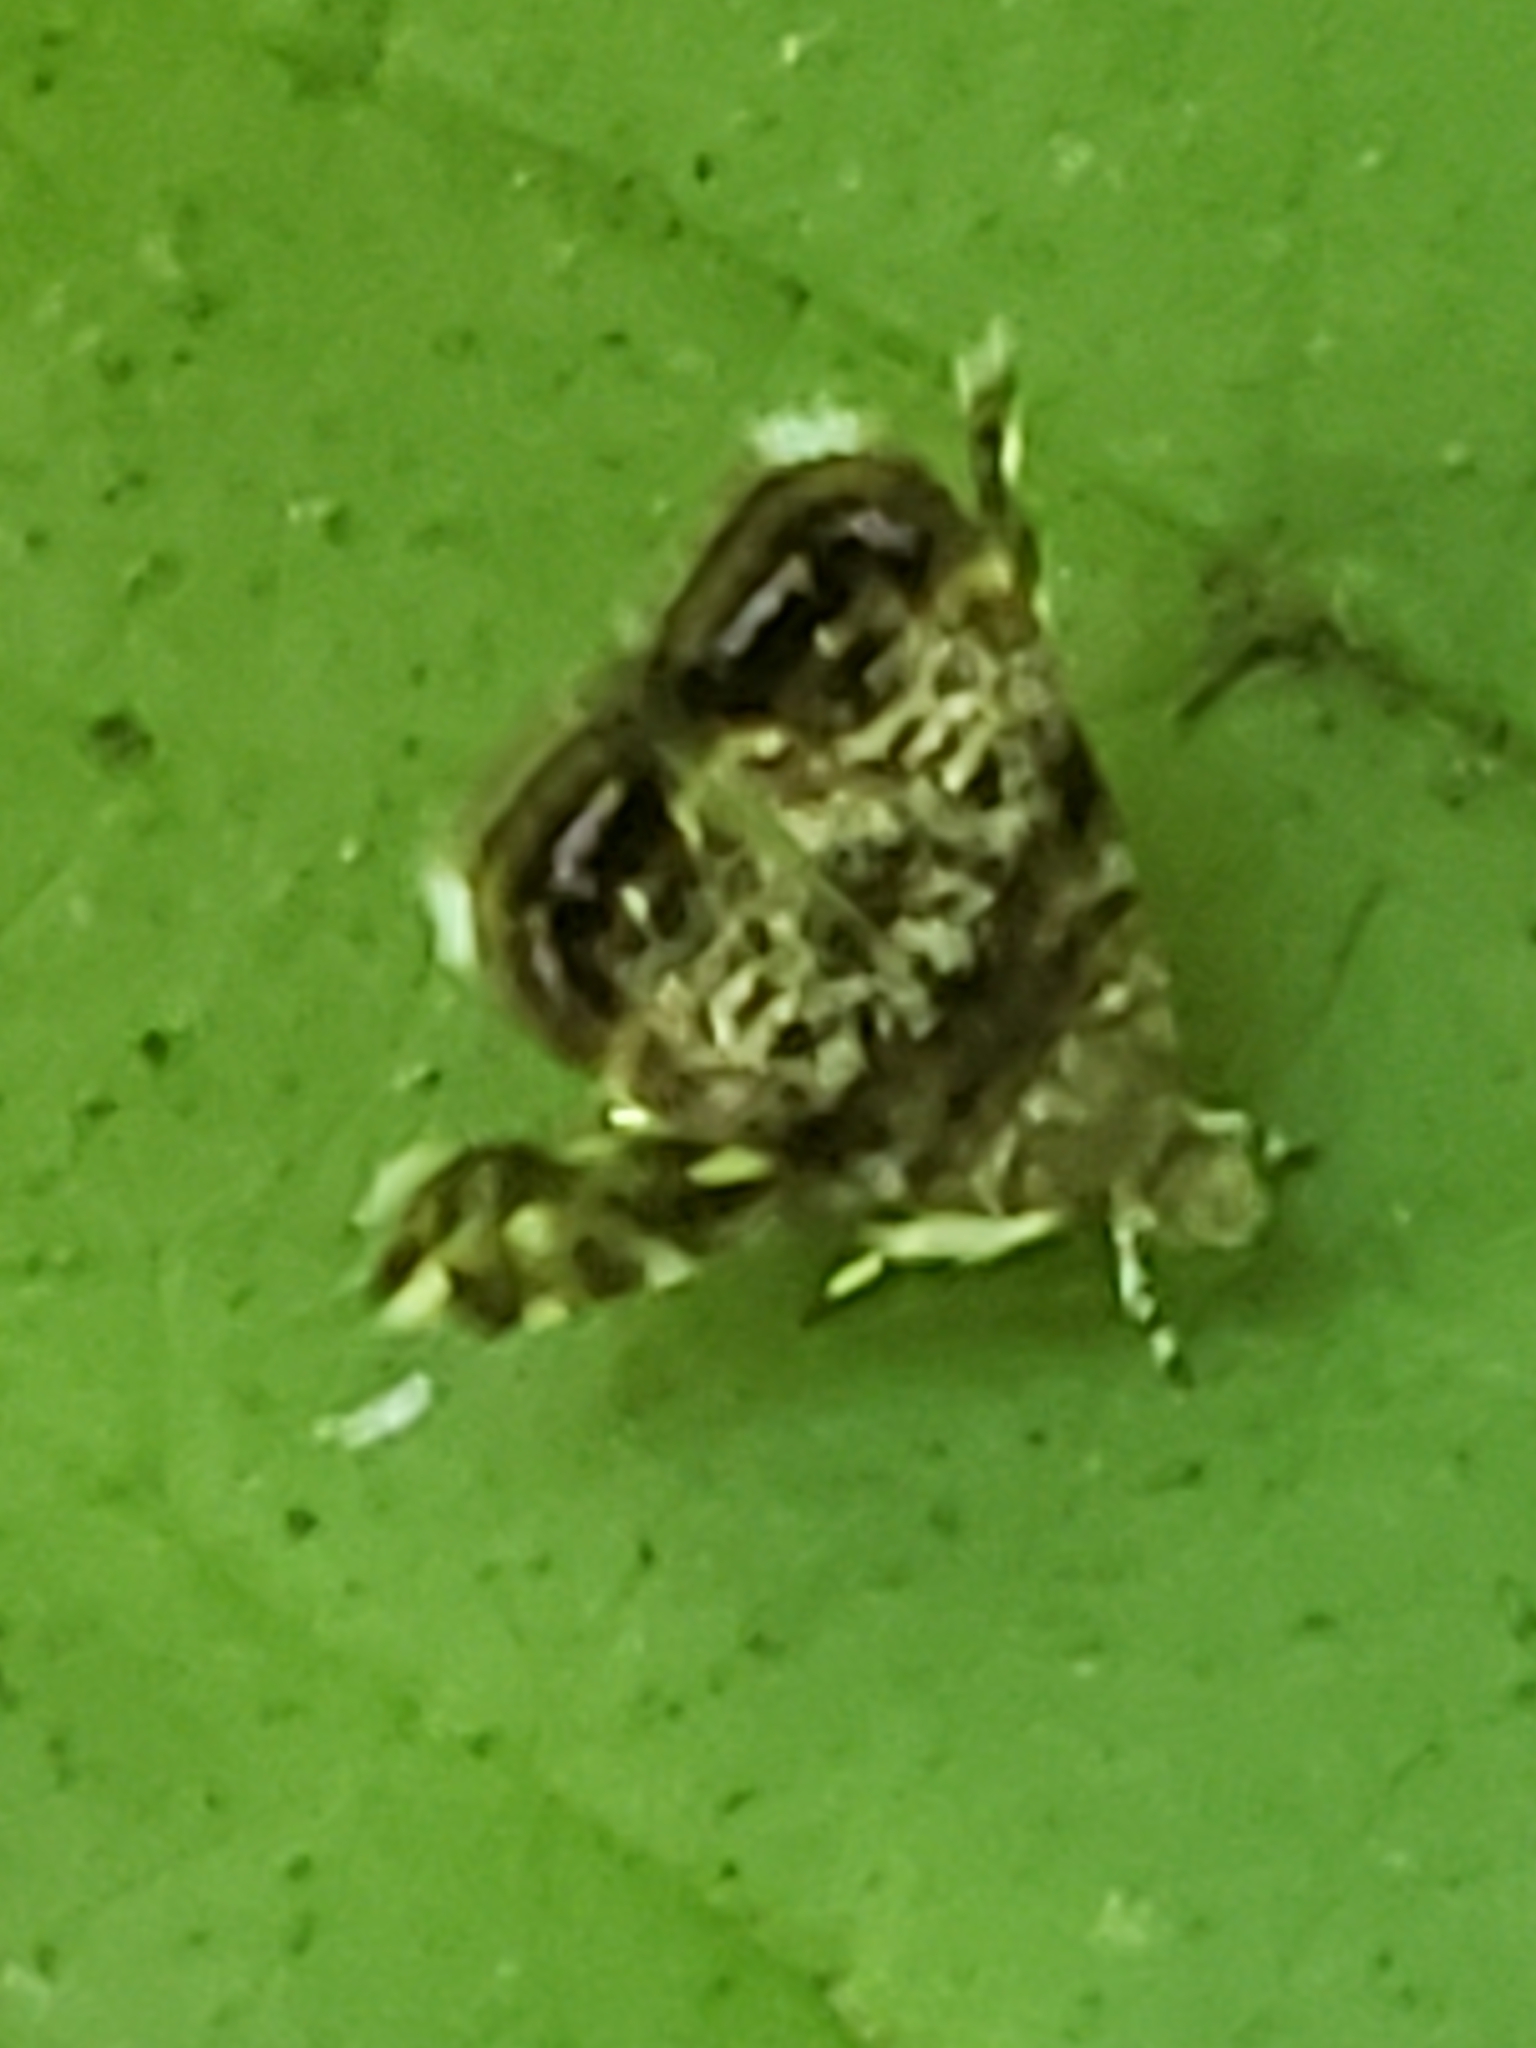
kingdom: Animalia
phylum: Arthropoda
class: Insecta
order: Lepidoptera
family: Choreutidae
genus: Brenthia
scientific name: Brenthia pavonacella
